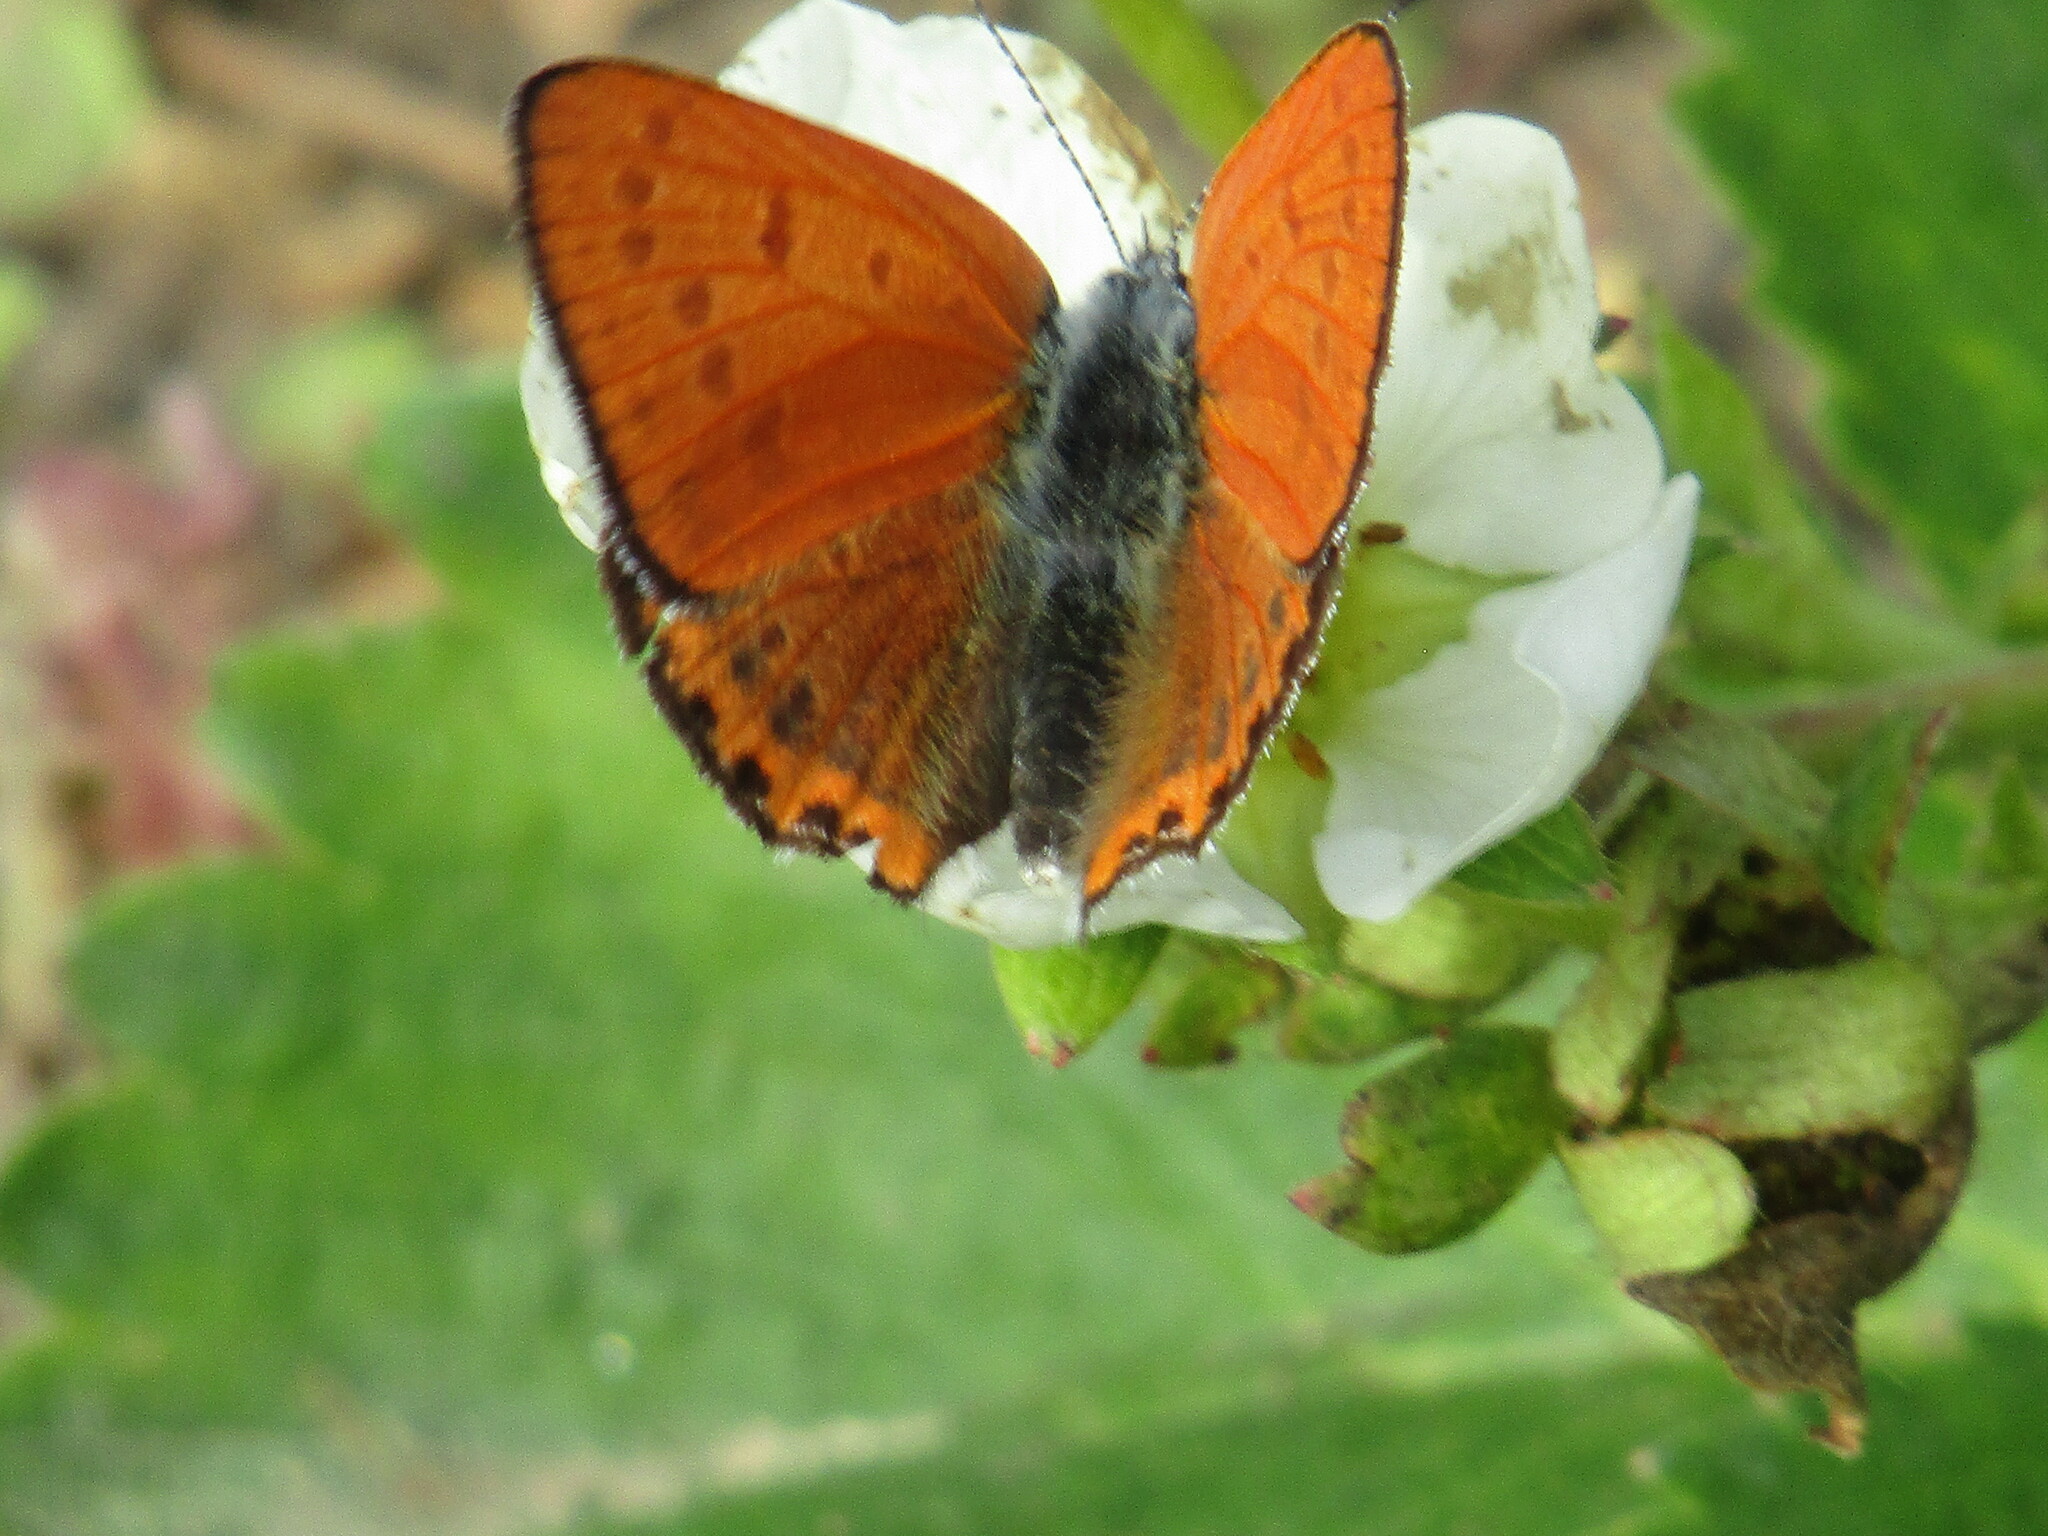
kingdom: Animalia
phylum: Arthropoda
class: Insecta
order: Lepidoptera
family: Lycaenidae
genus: Thersamonia
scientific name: Thersamonia thersamon
